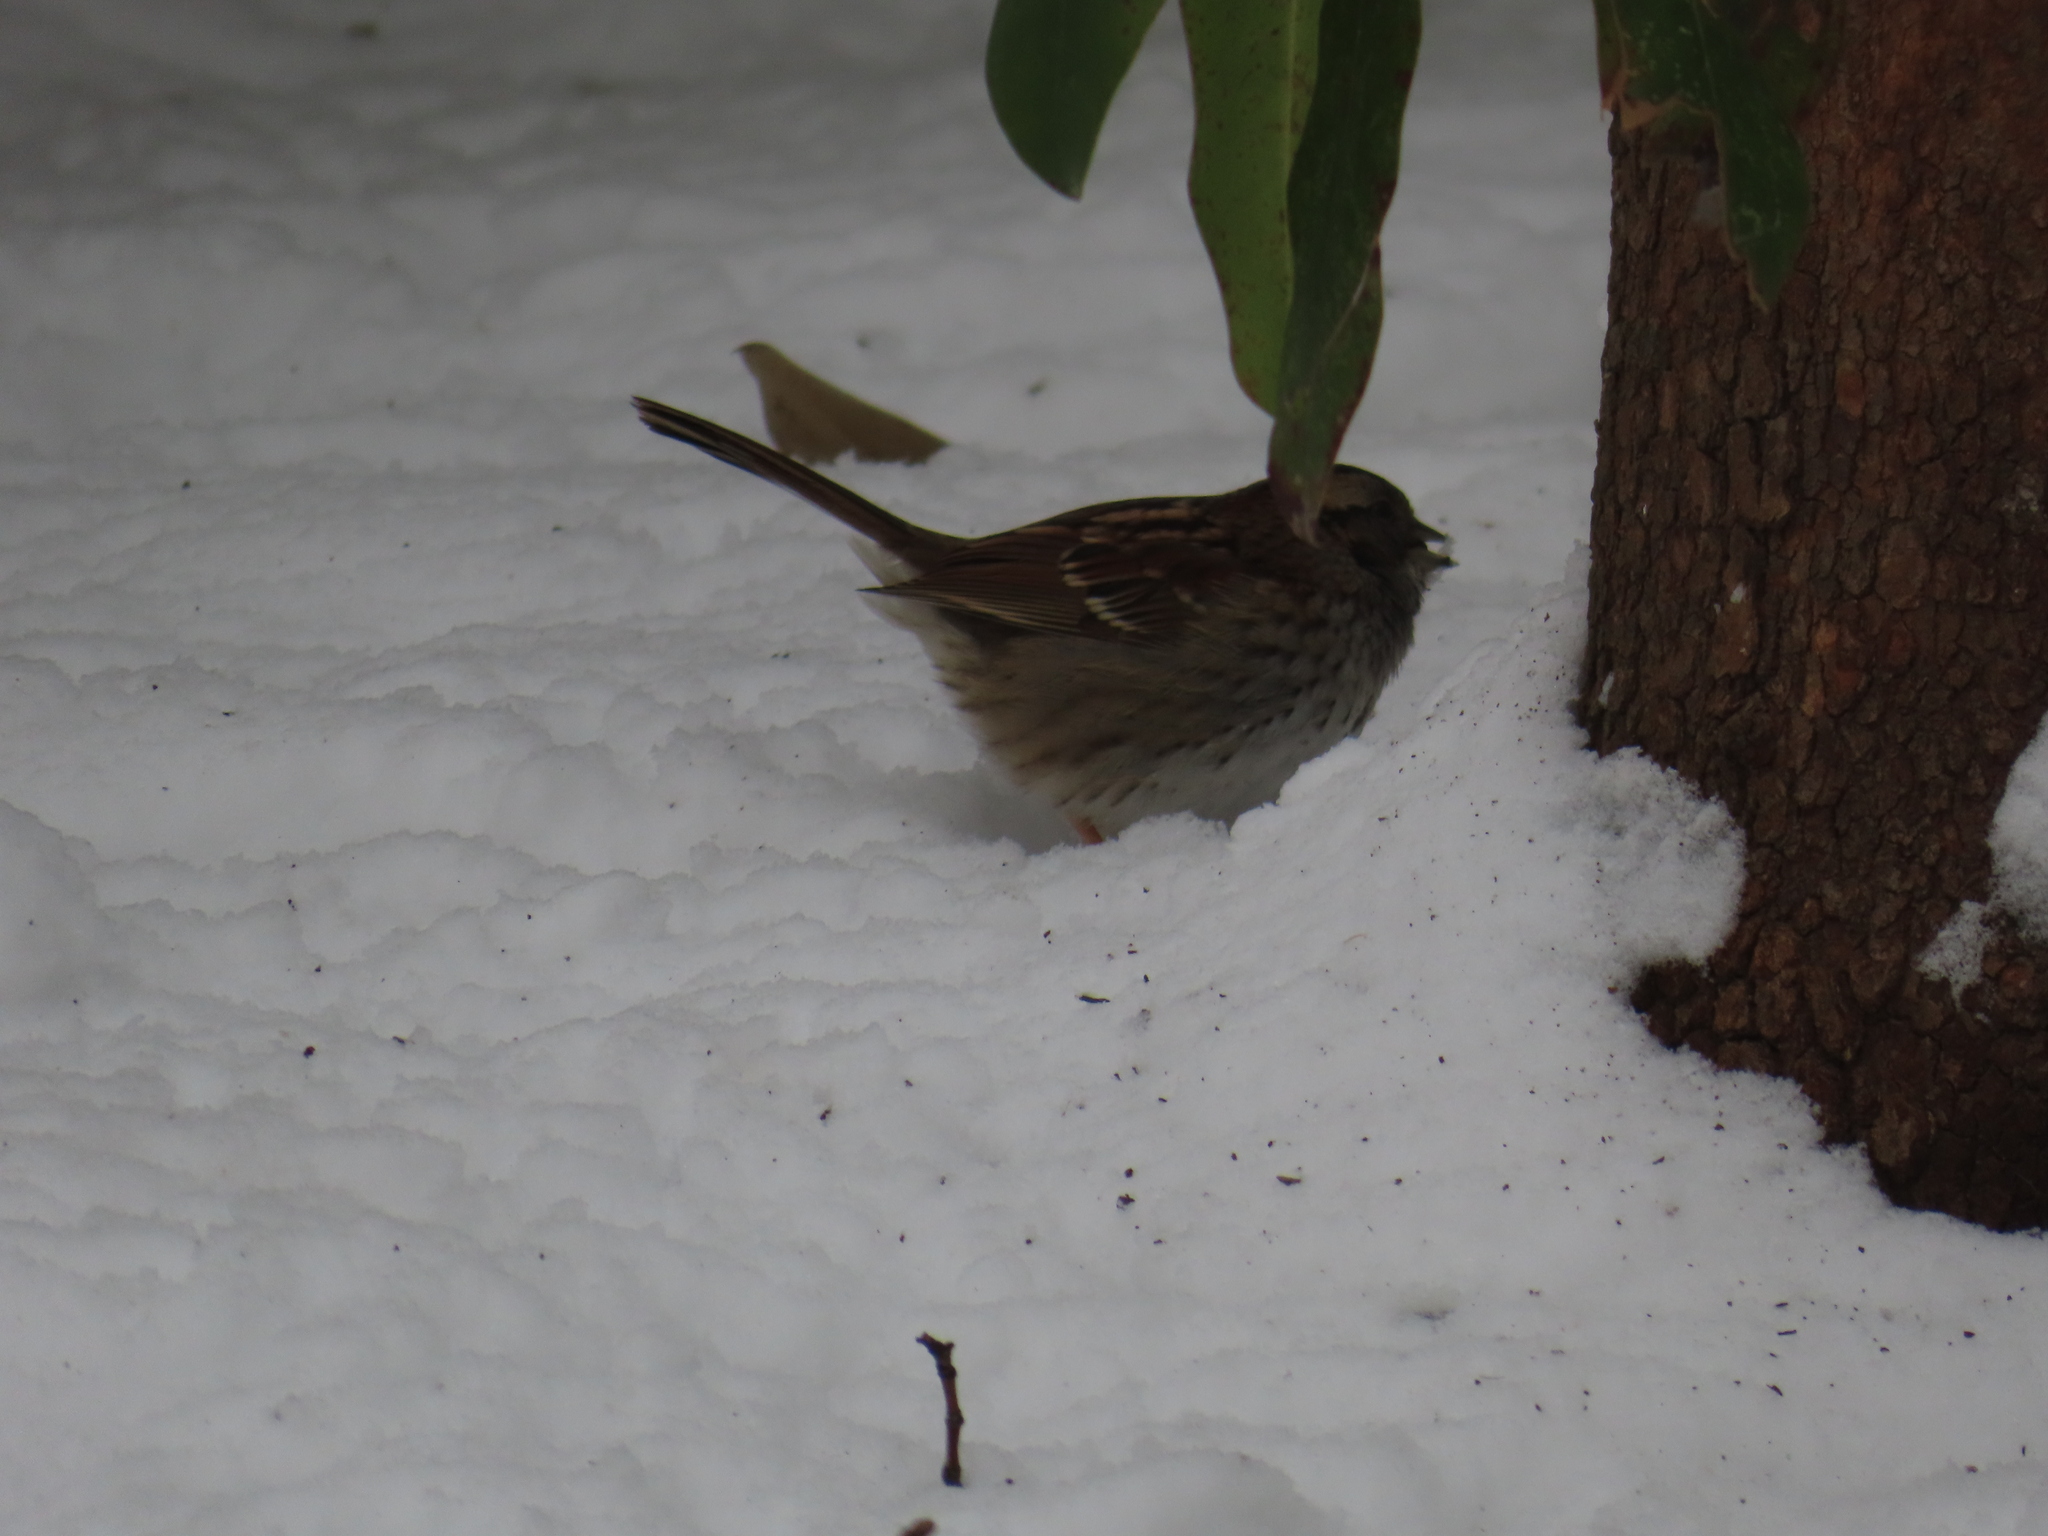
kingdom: Animalia
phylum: Chordata
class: Aves
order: Passeriformes
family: Passerellidae
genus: Zonotrichia
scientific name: Zonotrichia albicollis
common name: White-throated sparrow
